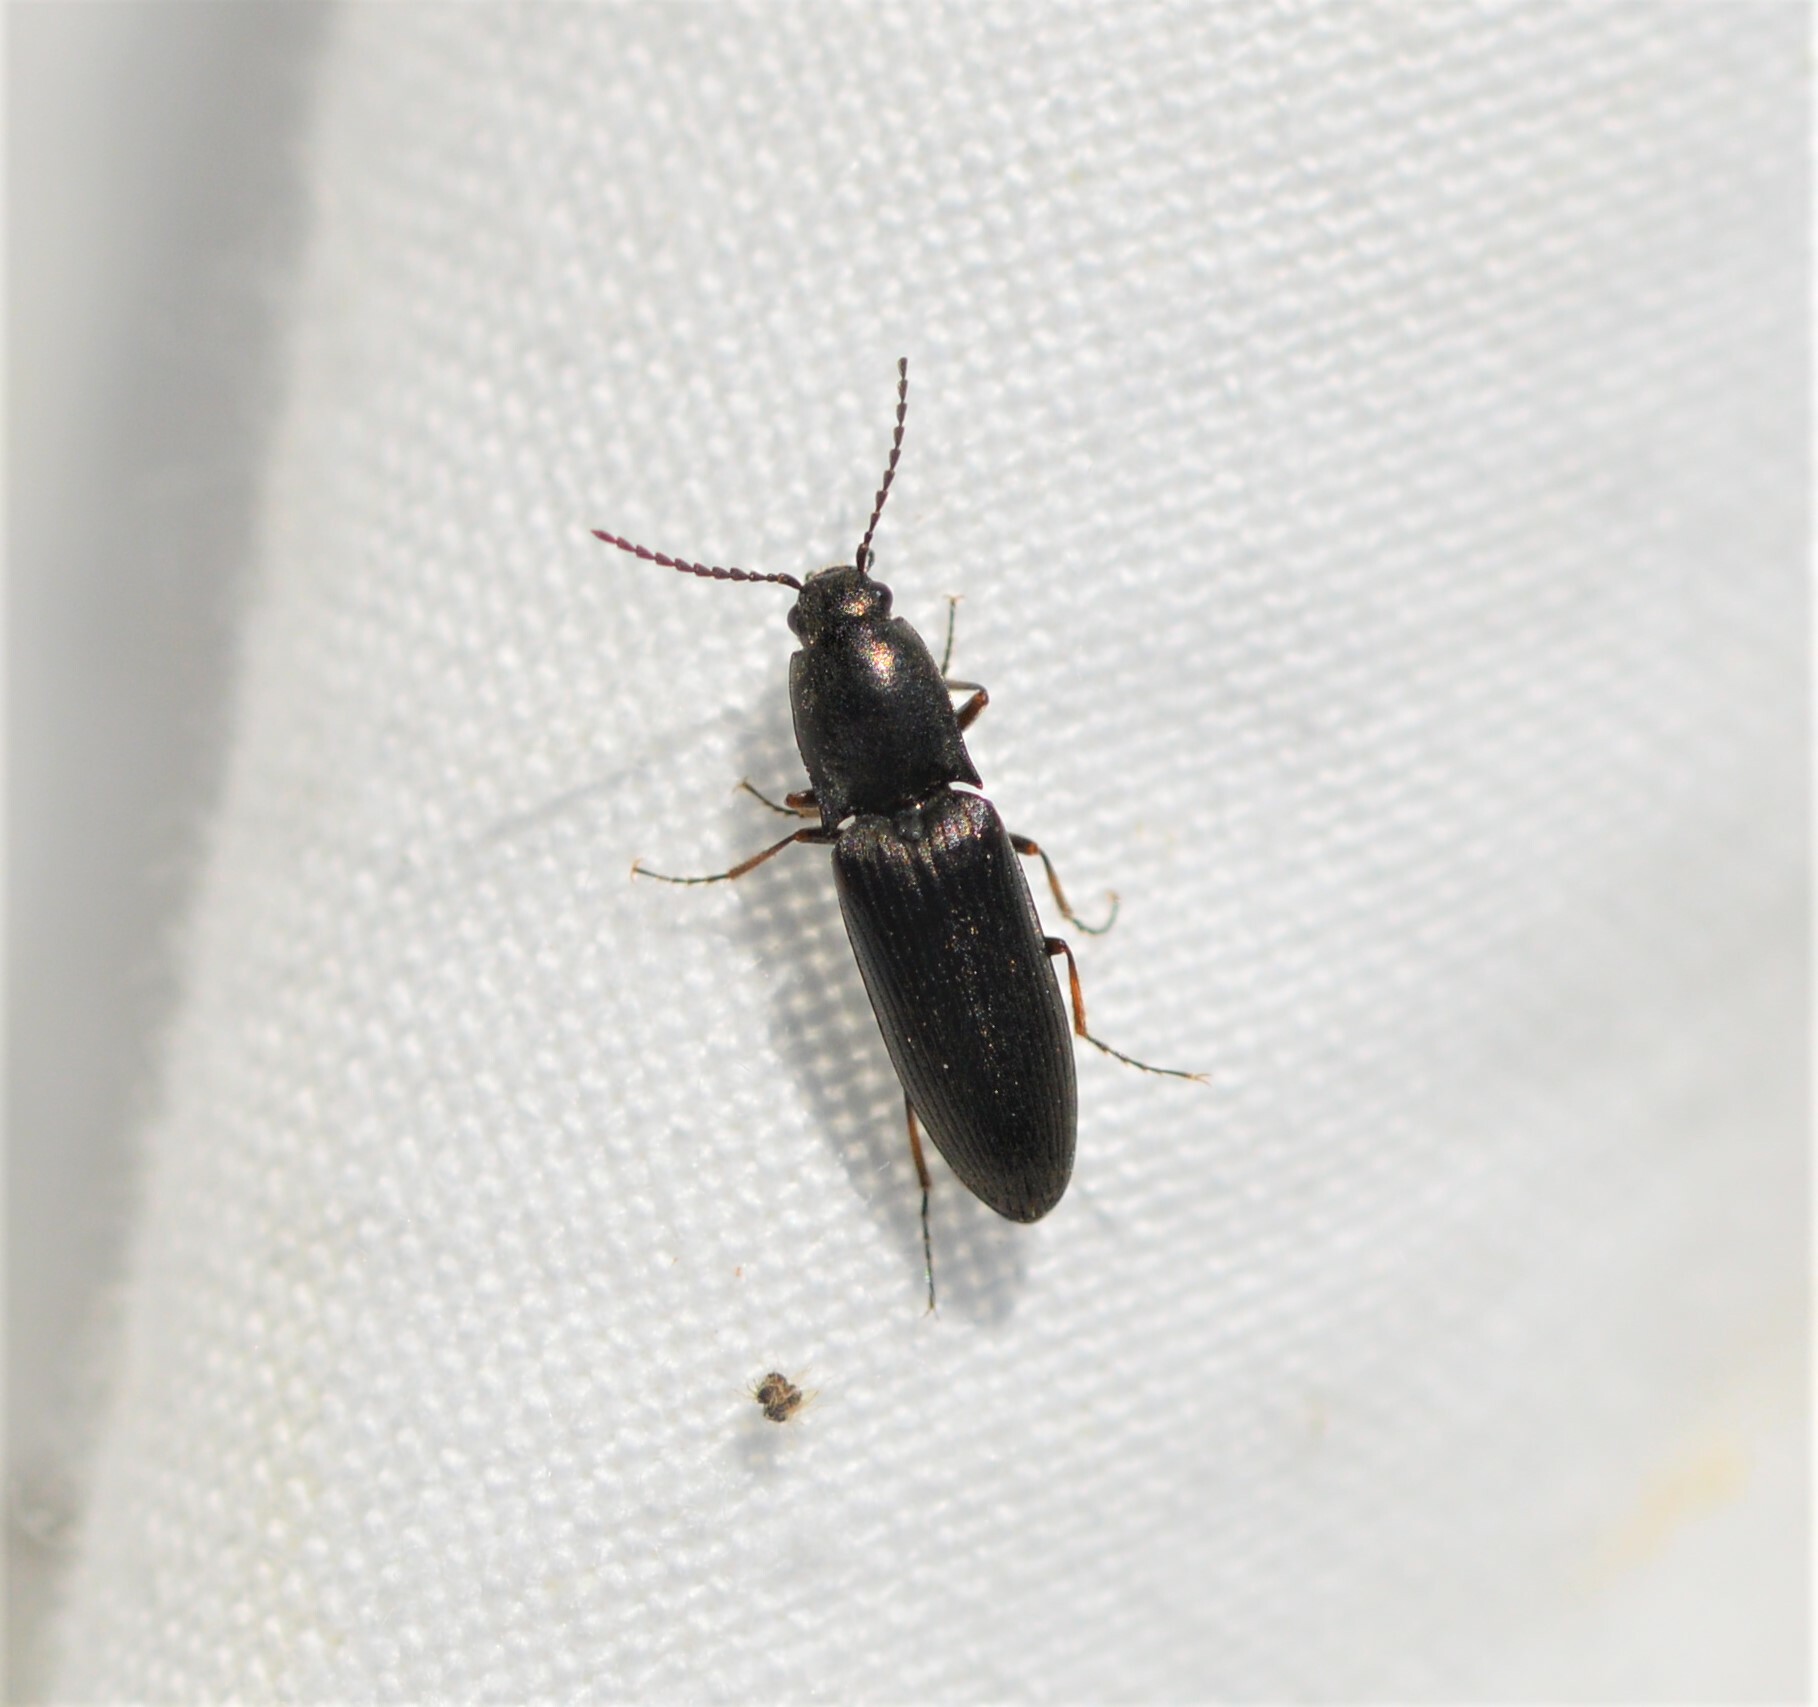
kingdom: Animalia
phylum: Arthropoda
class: Insecta
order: Coleoptera
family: Elateridae
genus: Aplotarsus
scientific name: Aplotarsus incanus
